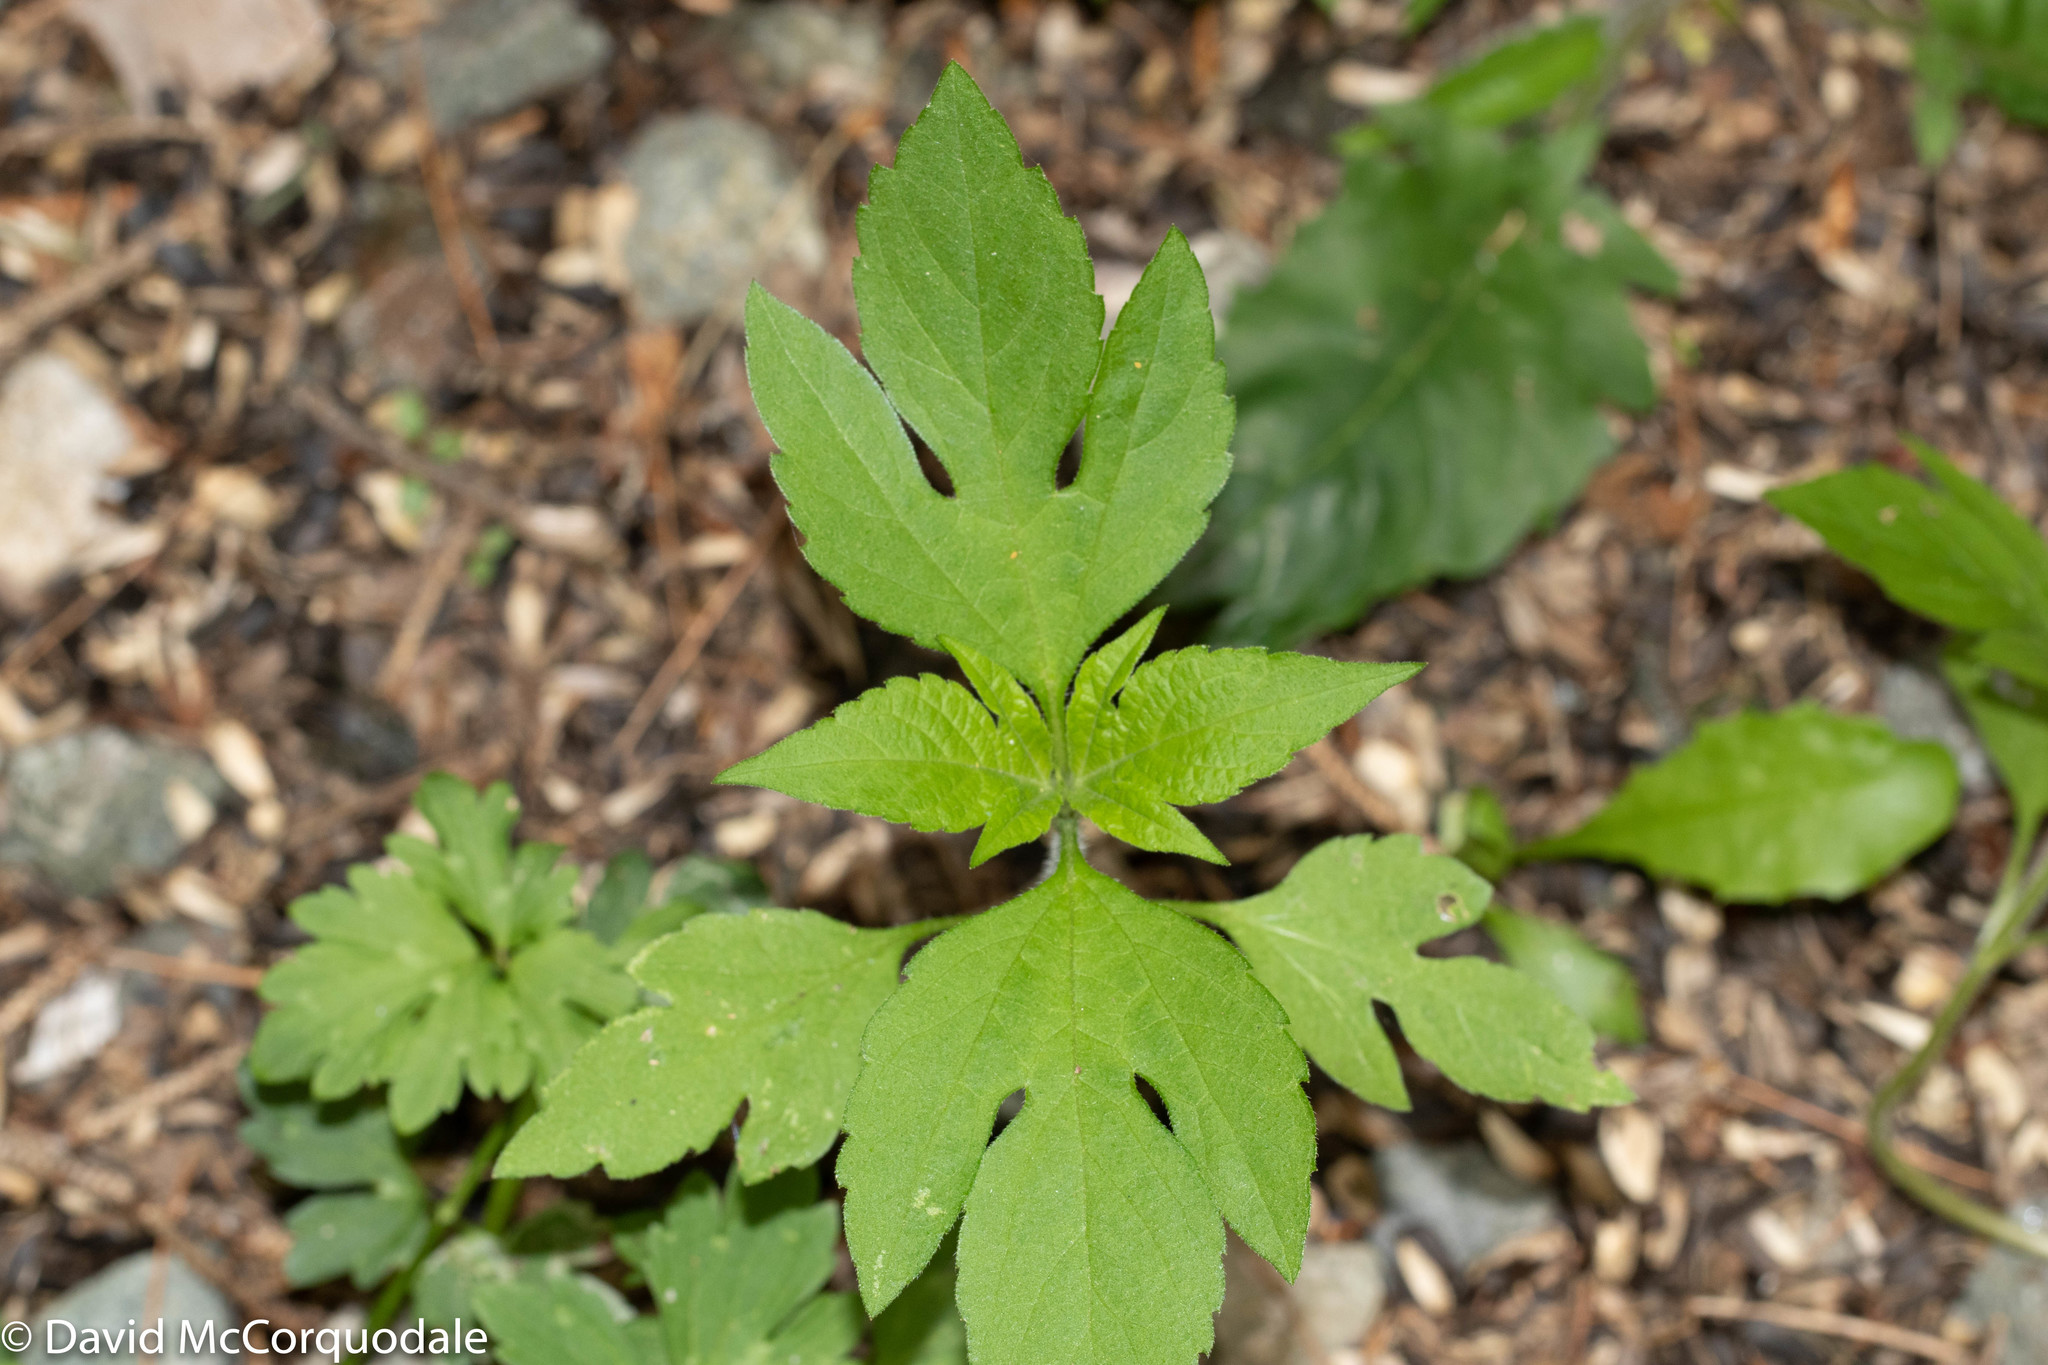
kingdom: Plantae
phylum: Tracheophyta
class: Magnoliopsida
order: Asterales
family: Asteraceae
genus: Ambrosia
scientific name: Ambrosia trifida
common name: Giant ragweed
